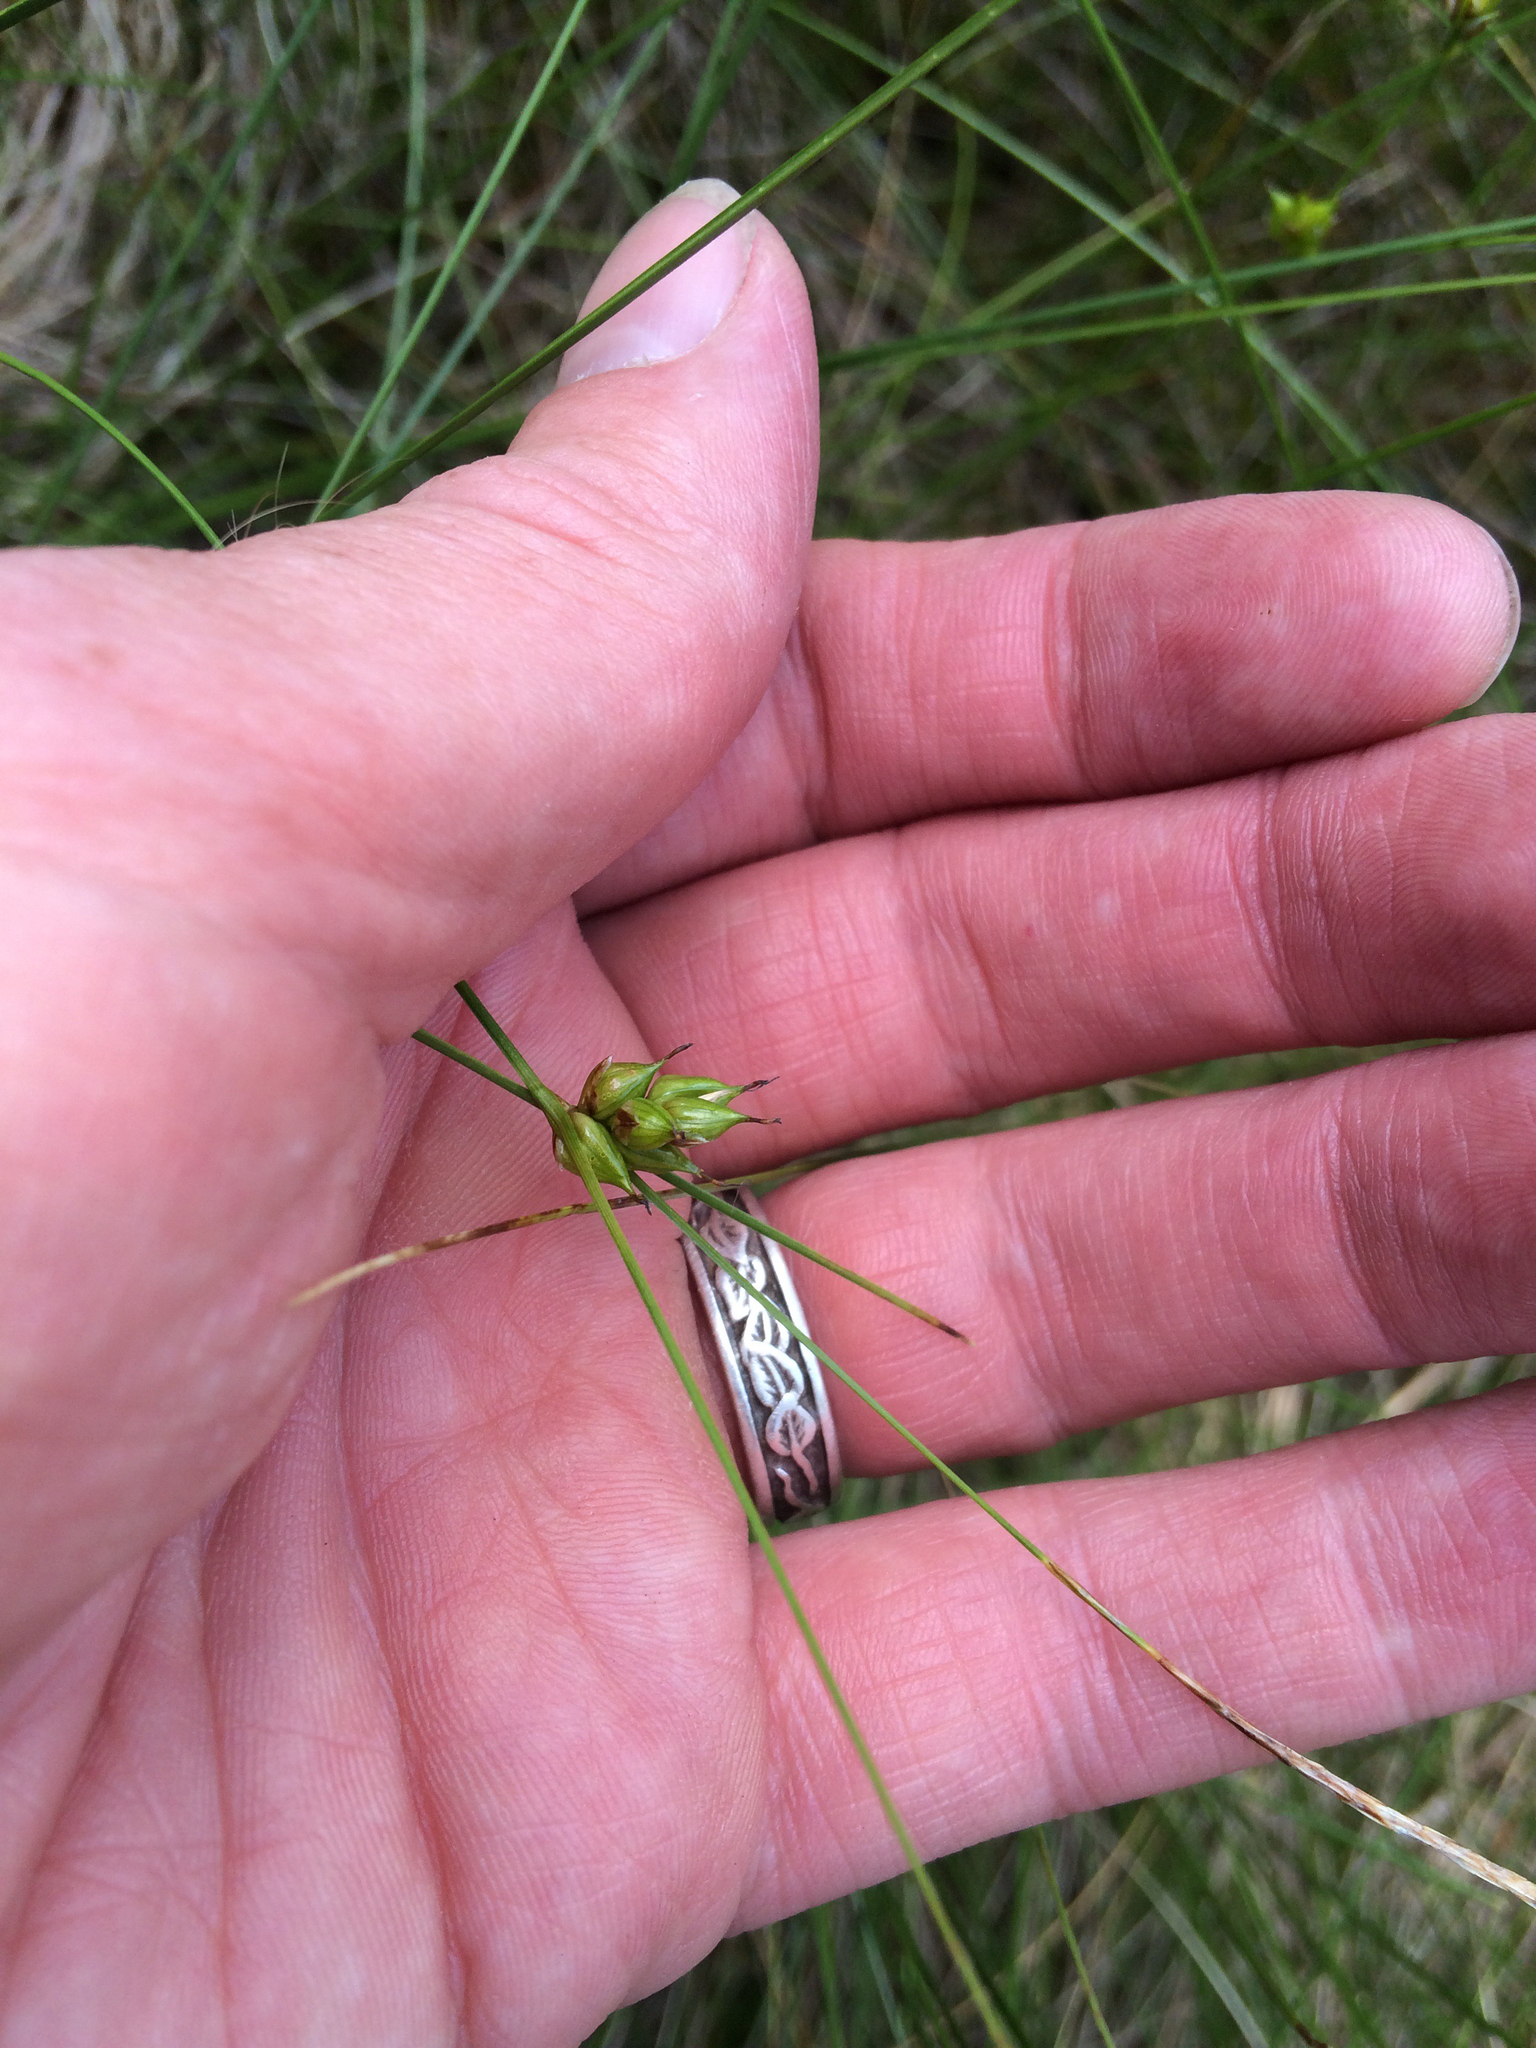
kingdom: Plantae
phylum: Tracheophyta
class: Liliopsida
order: Poales
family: Cyperaceae
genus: Carex
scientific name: Carex oligosperma
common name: Few-seed sedge
